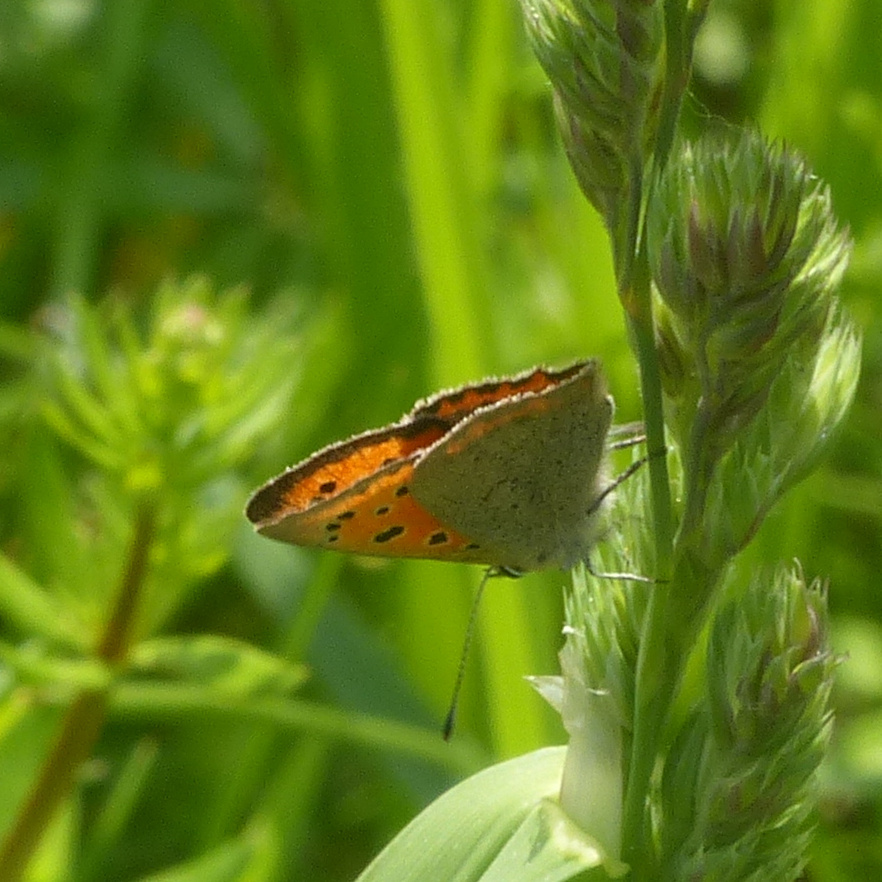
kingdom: Animalia
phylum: Arthropoda
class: Insecta
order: Lepidoptera
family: Lycaenidae
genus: Lycaena
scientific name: Lycaena phlaeas
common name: Small copper
